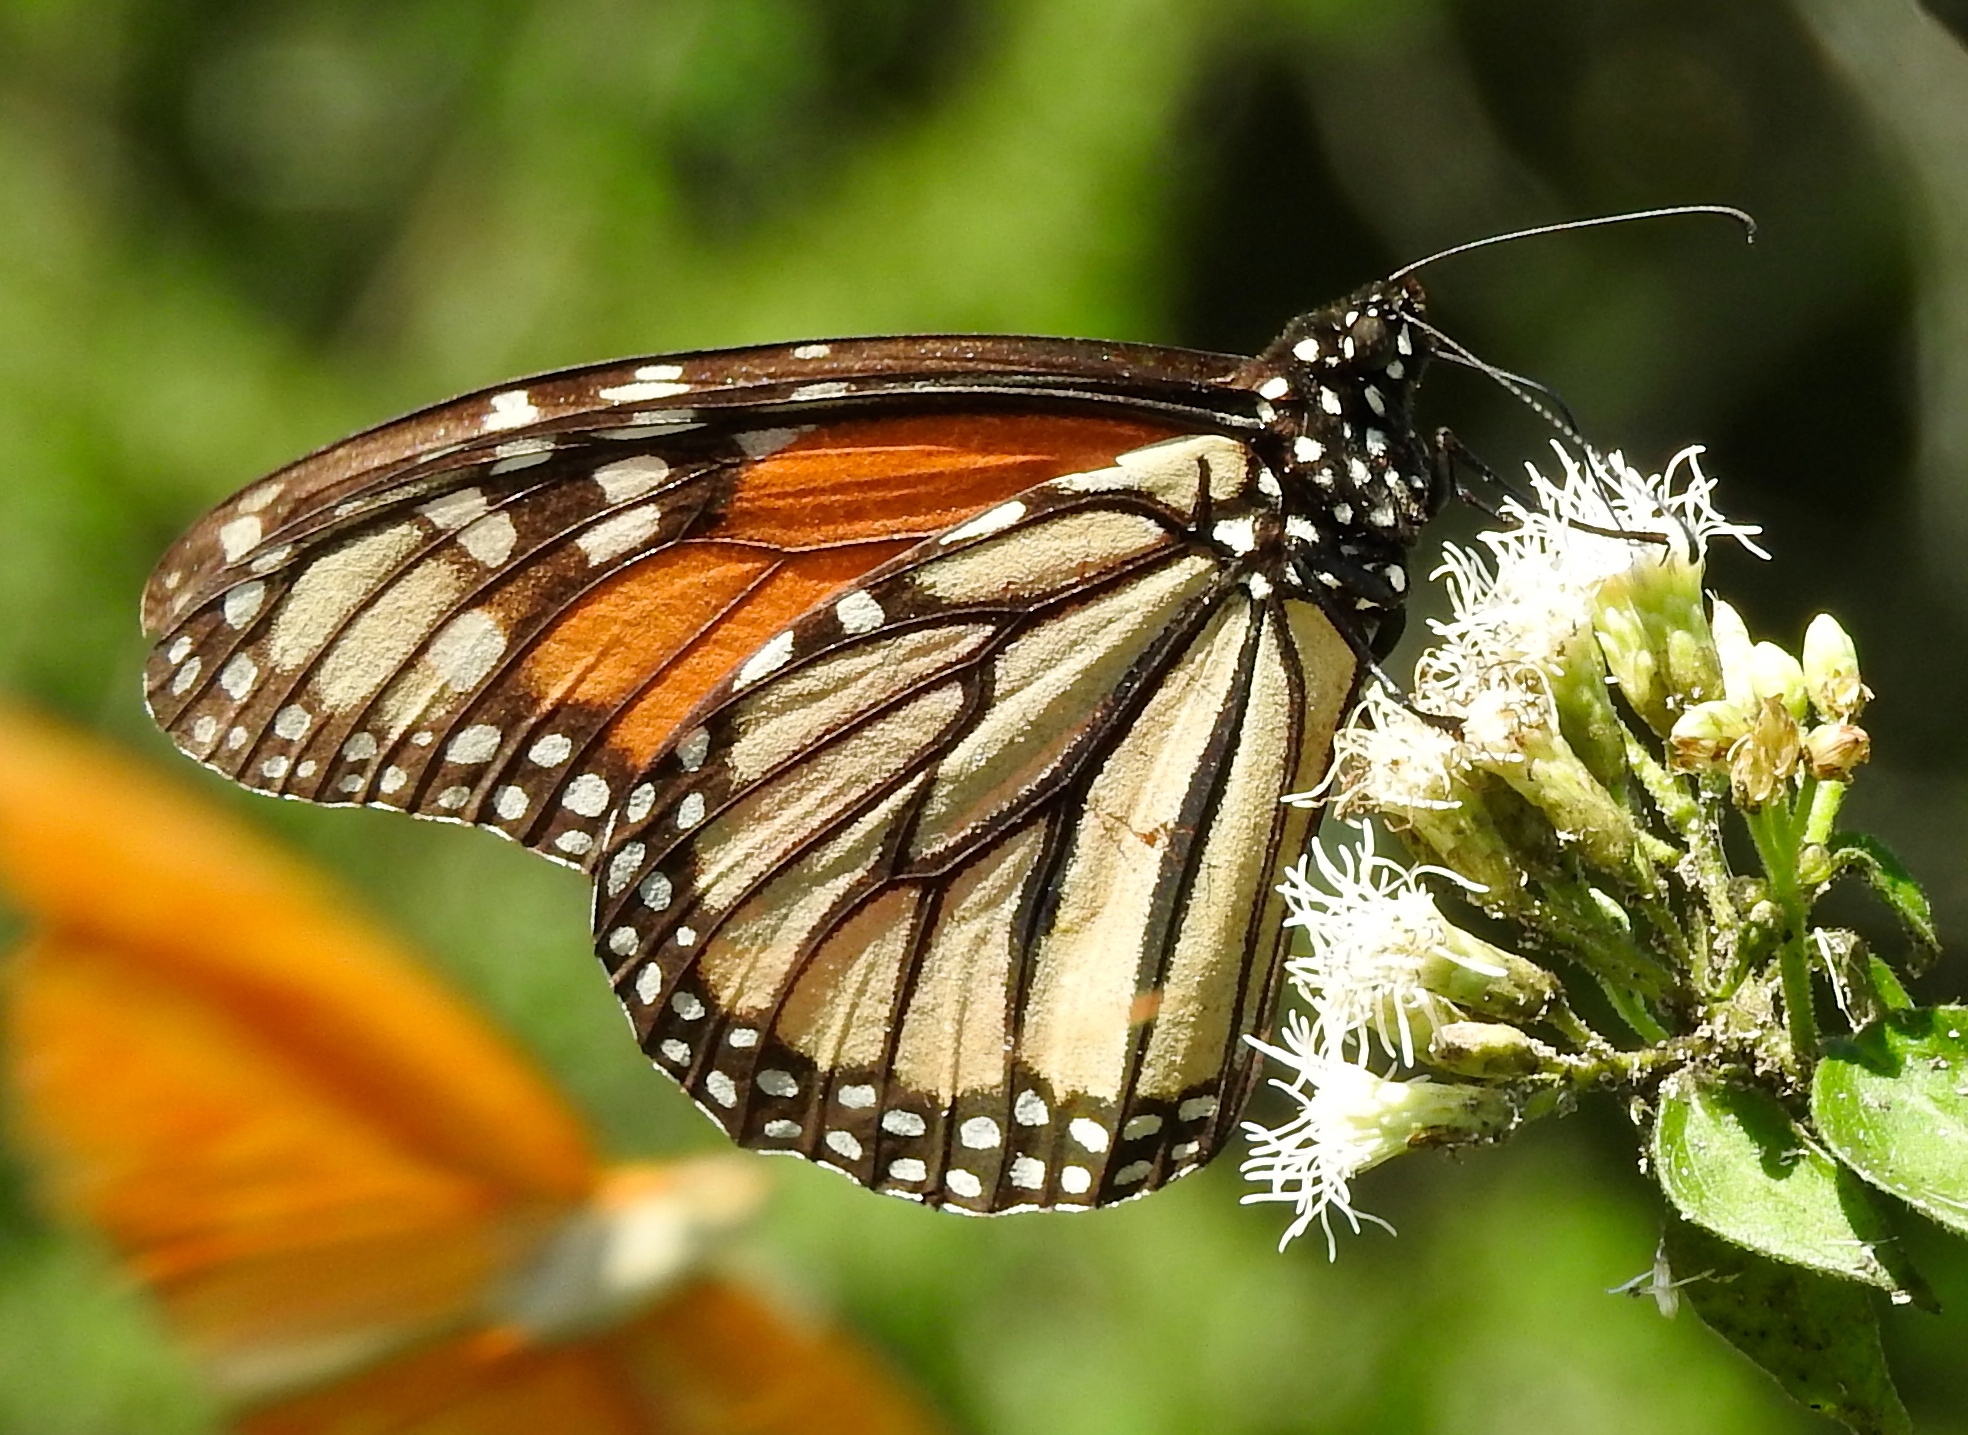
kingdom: Animalia
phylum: Arthropoda
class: Insecta
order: Lepidoptera
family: Nymphalidae
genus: Danaus
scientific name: Danaus plexippus
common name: Monarch
